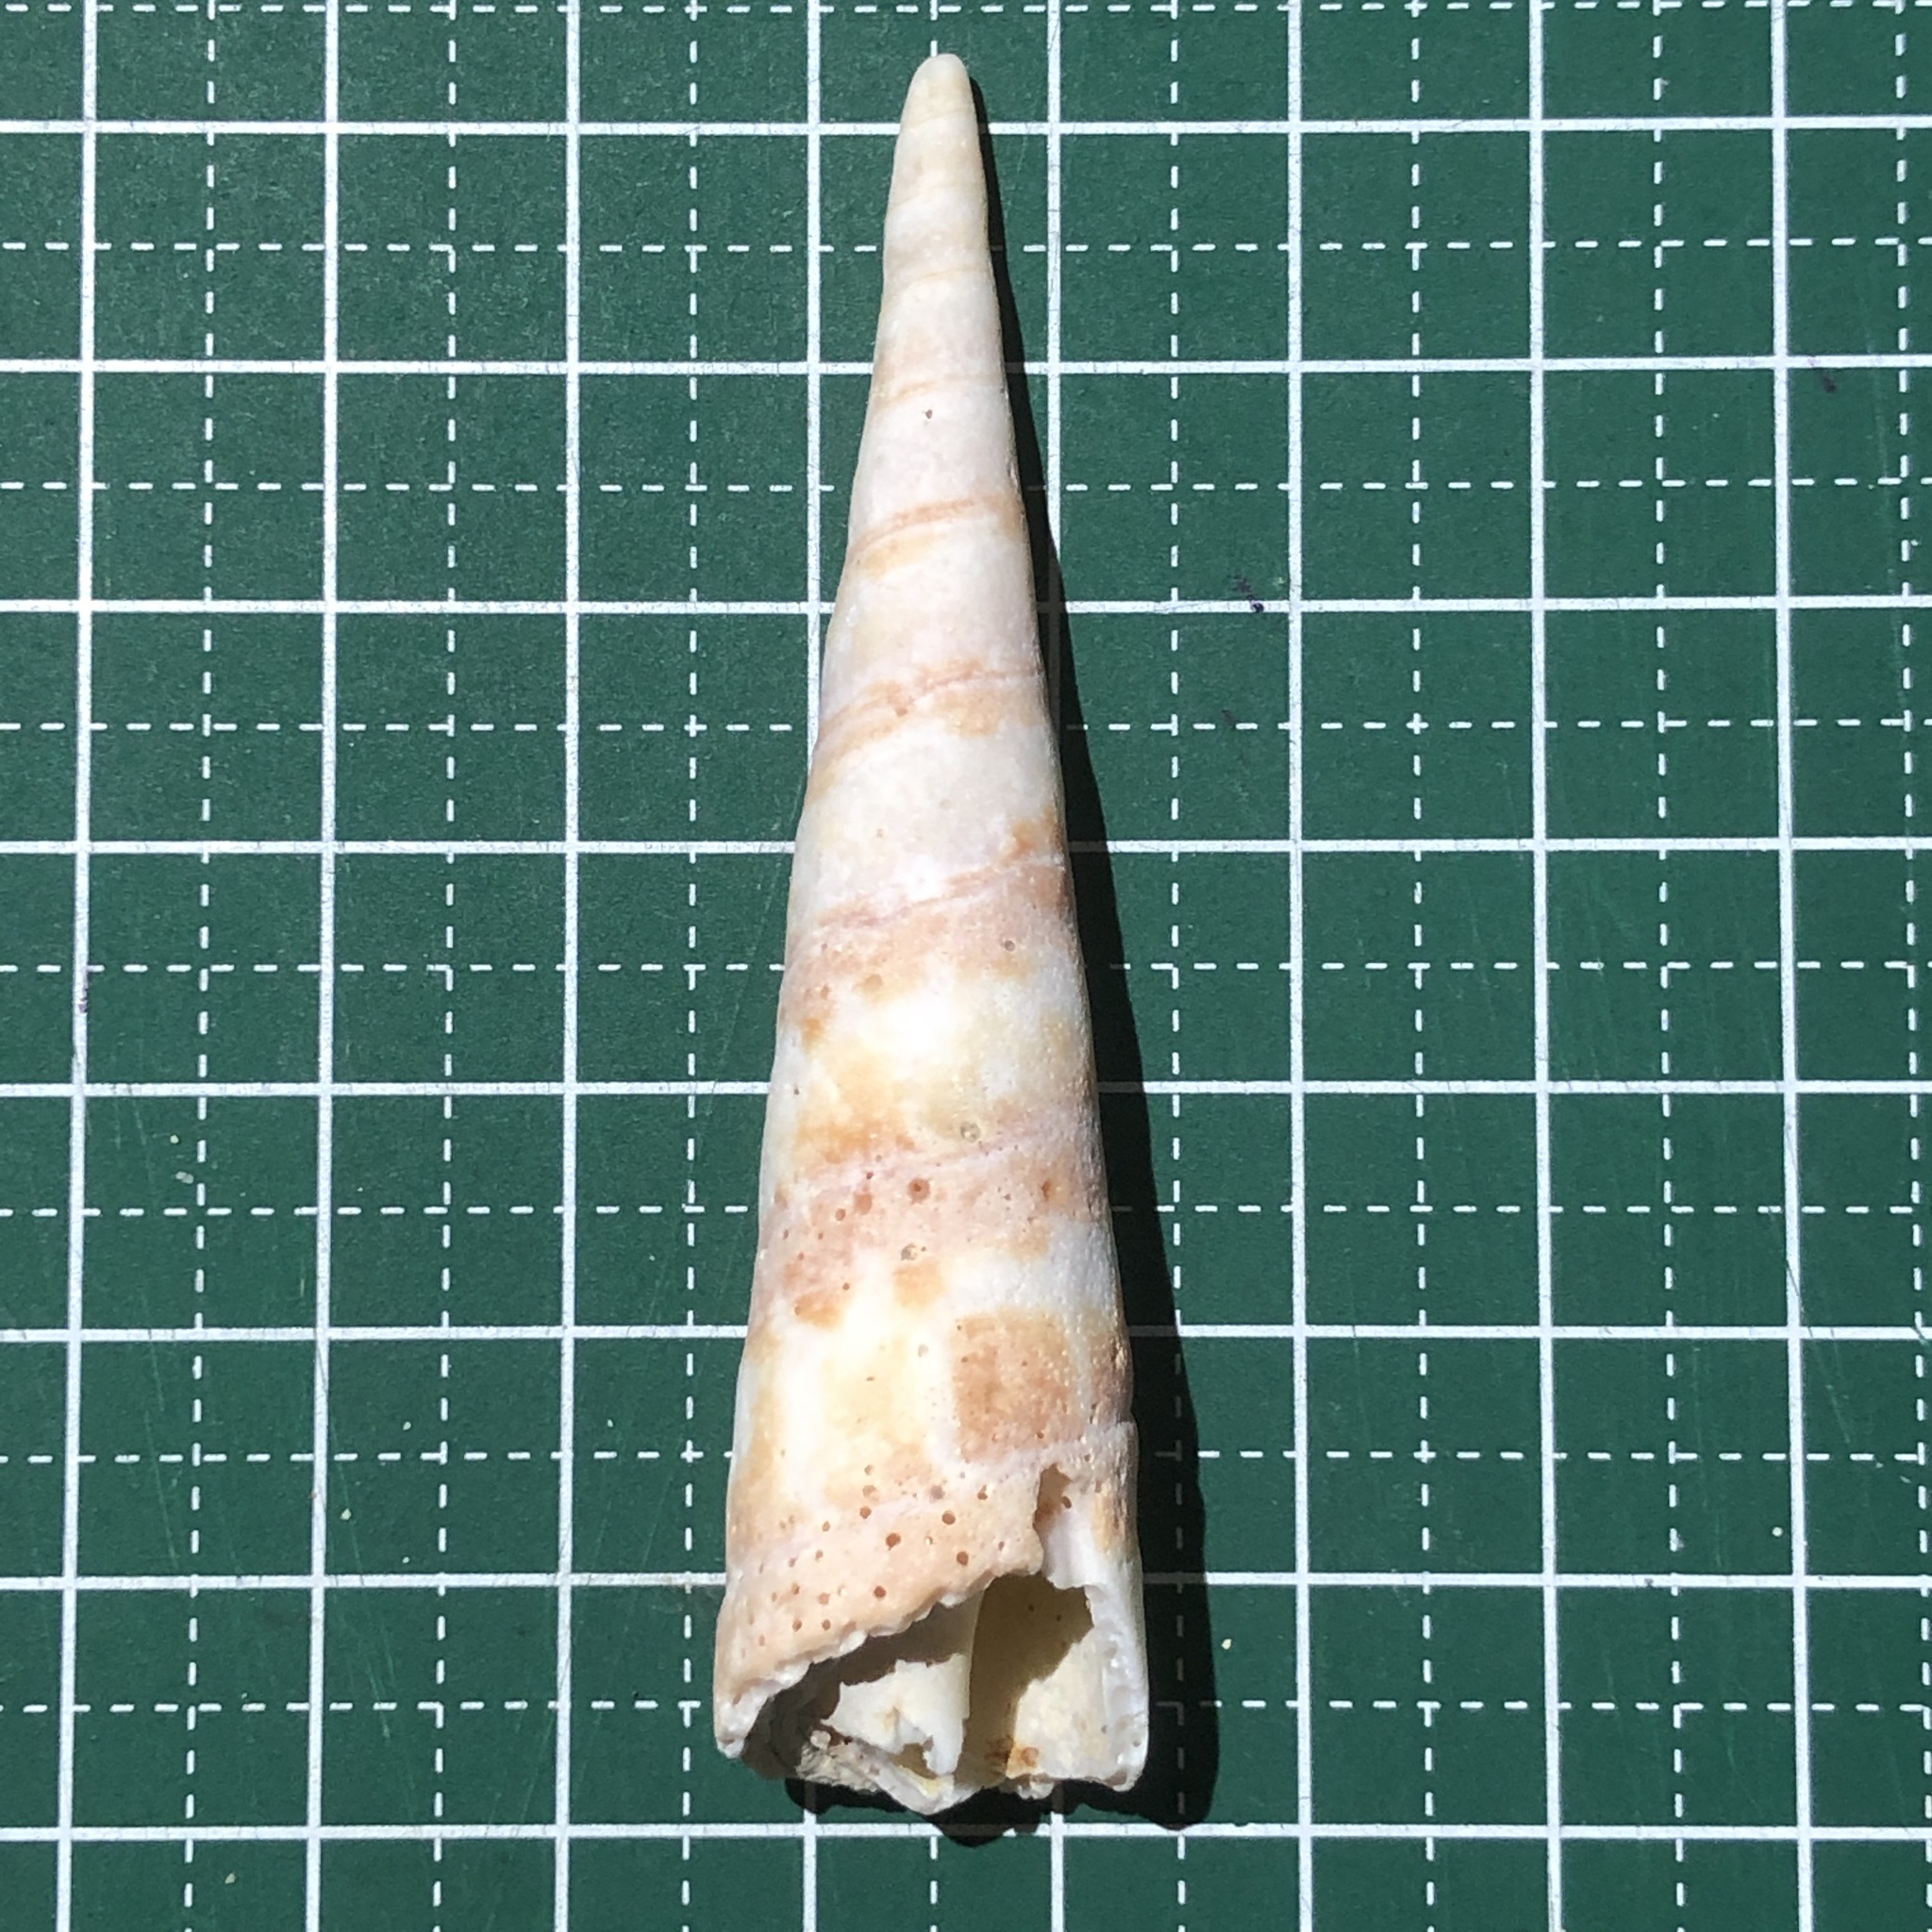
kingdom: Animalia
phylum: Mollusca
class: Gastropoda
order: Neogastropoda
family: Terebridae
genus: Oxymeris
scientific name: Oxymeris dimidiata
